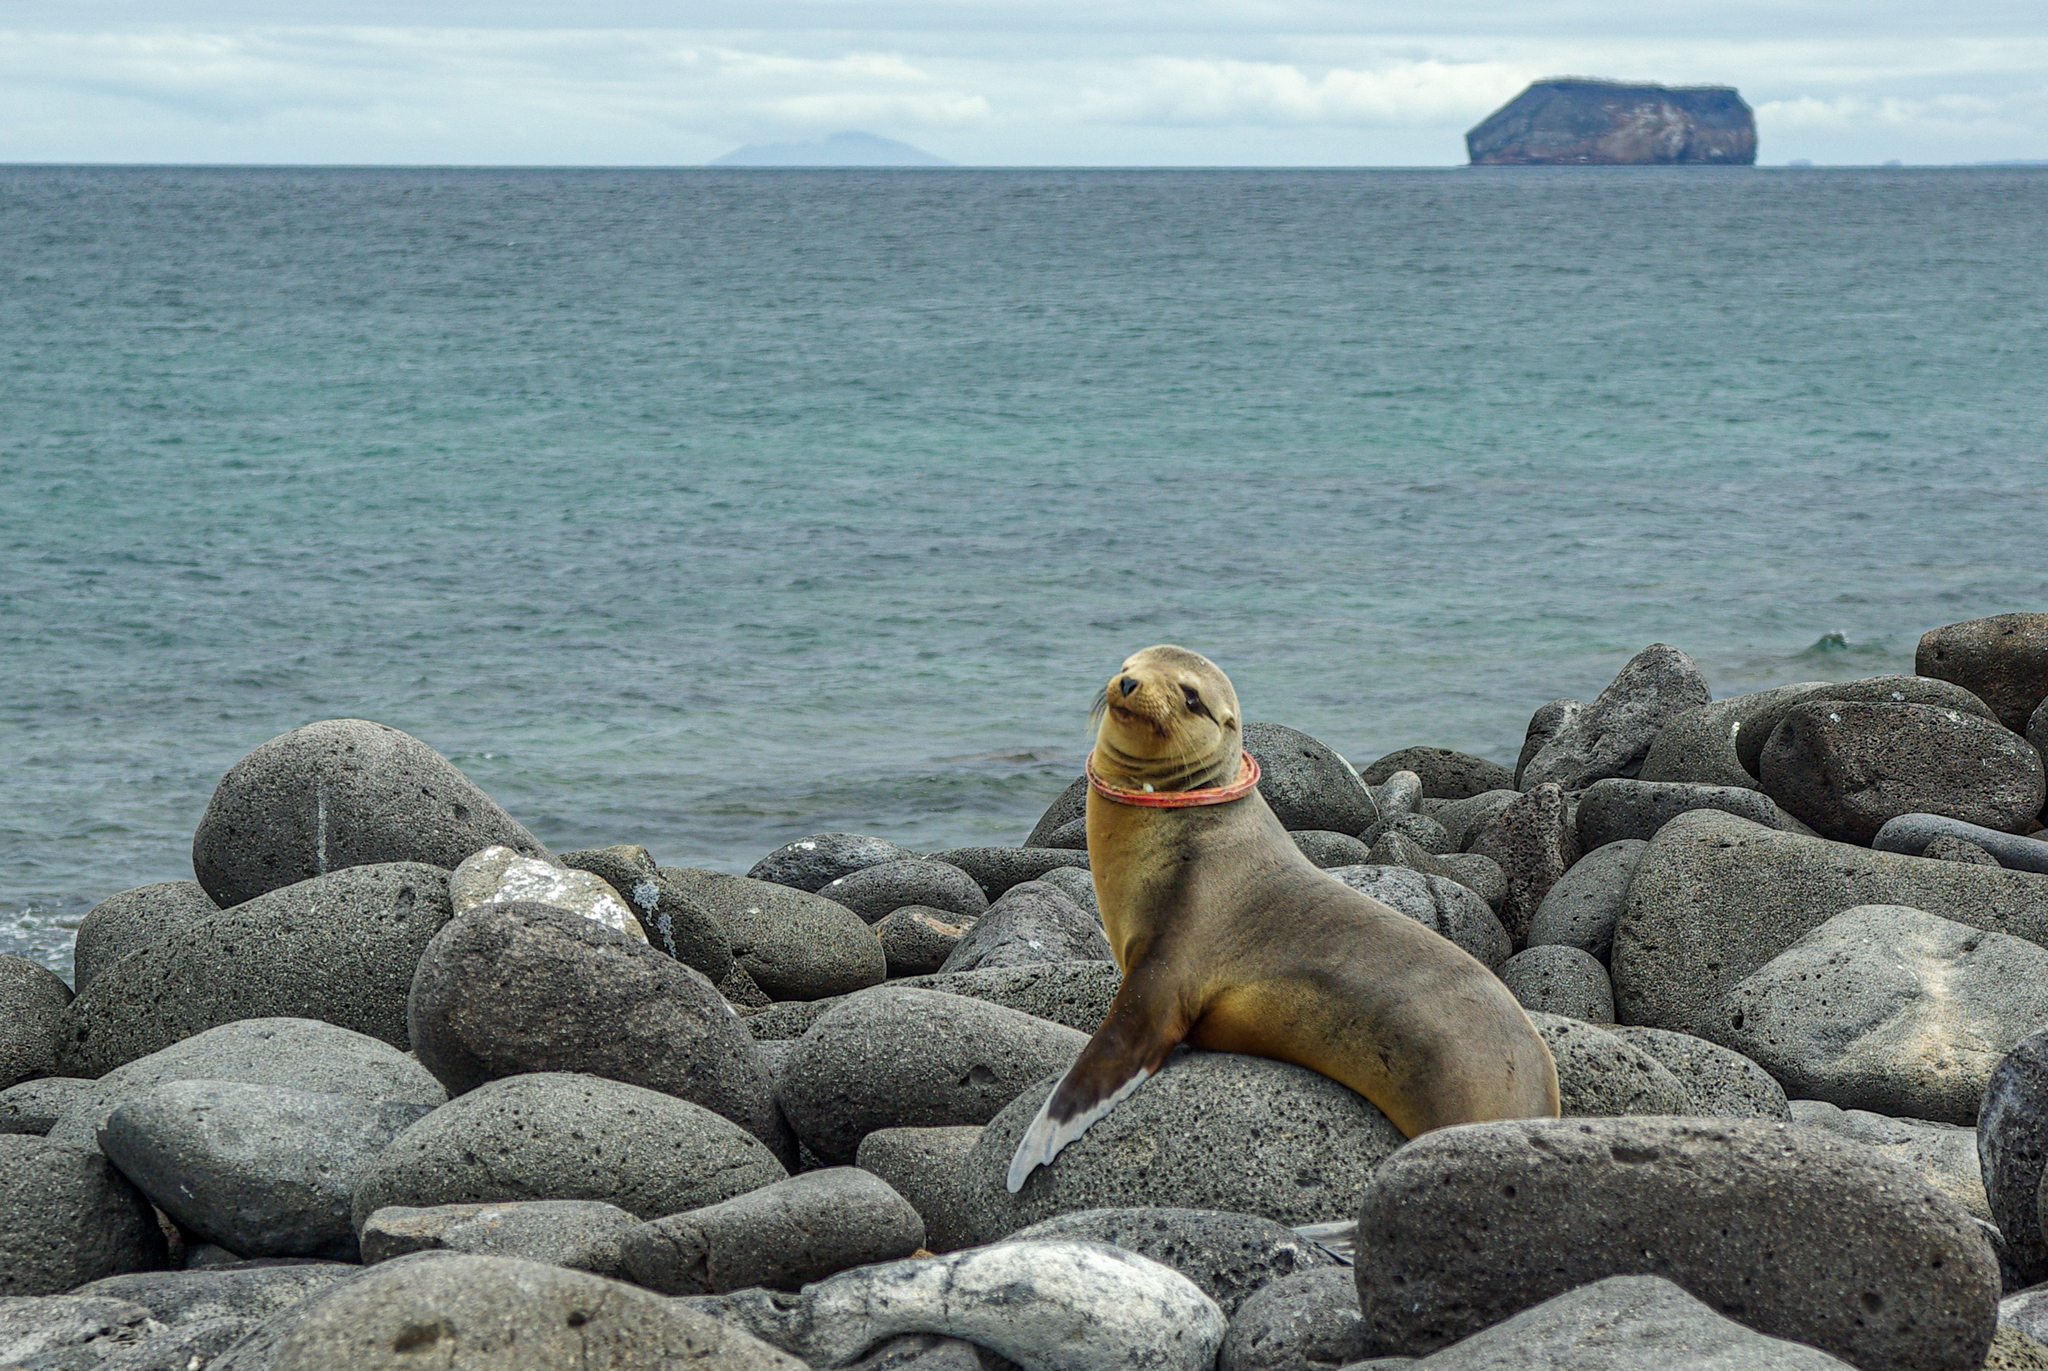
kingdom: Animalia
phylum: Chordata
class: Mammalia
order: Carnivora
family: Otariidae
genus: Zalophus
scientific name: Zalophus wollebaeki
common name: Galapagos sea lion
